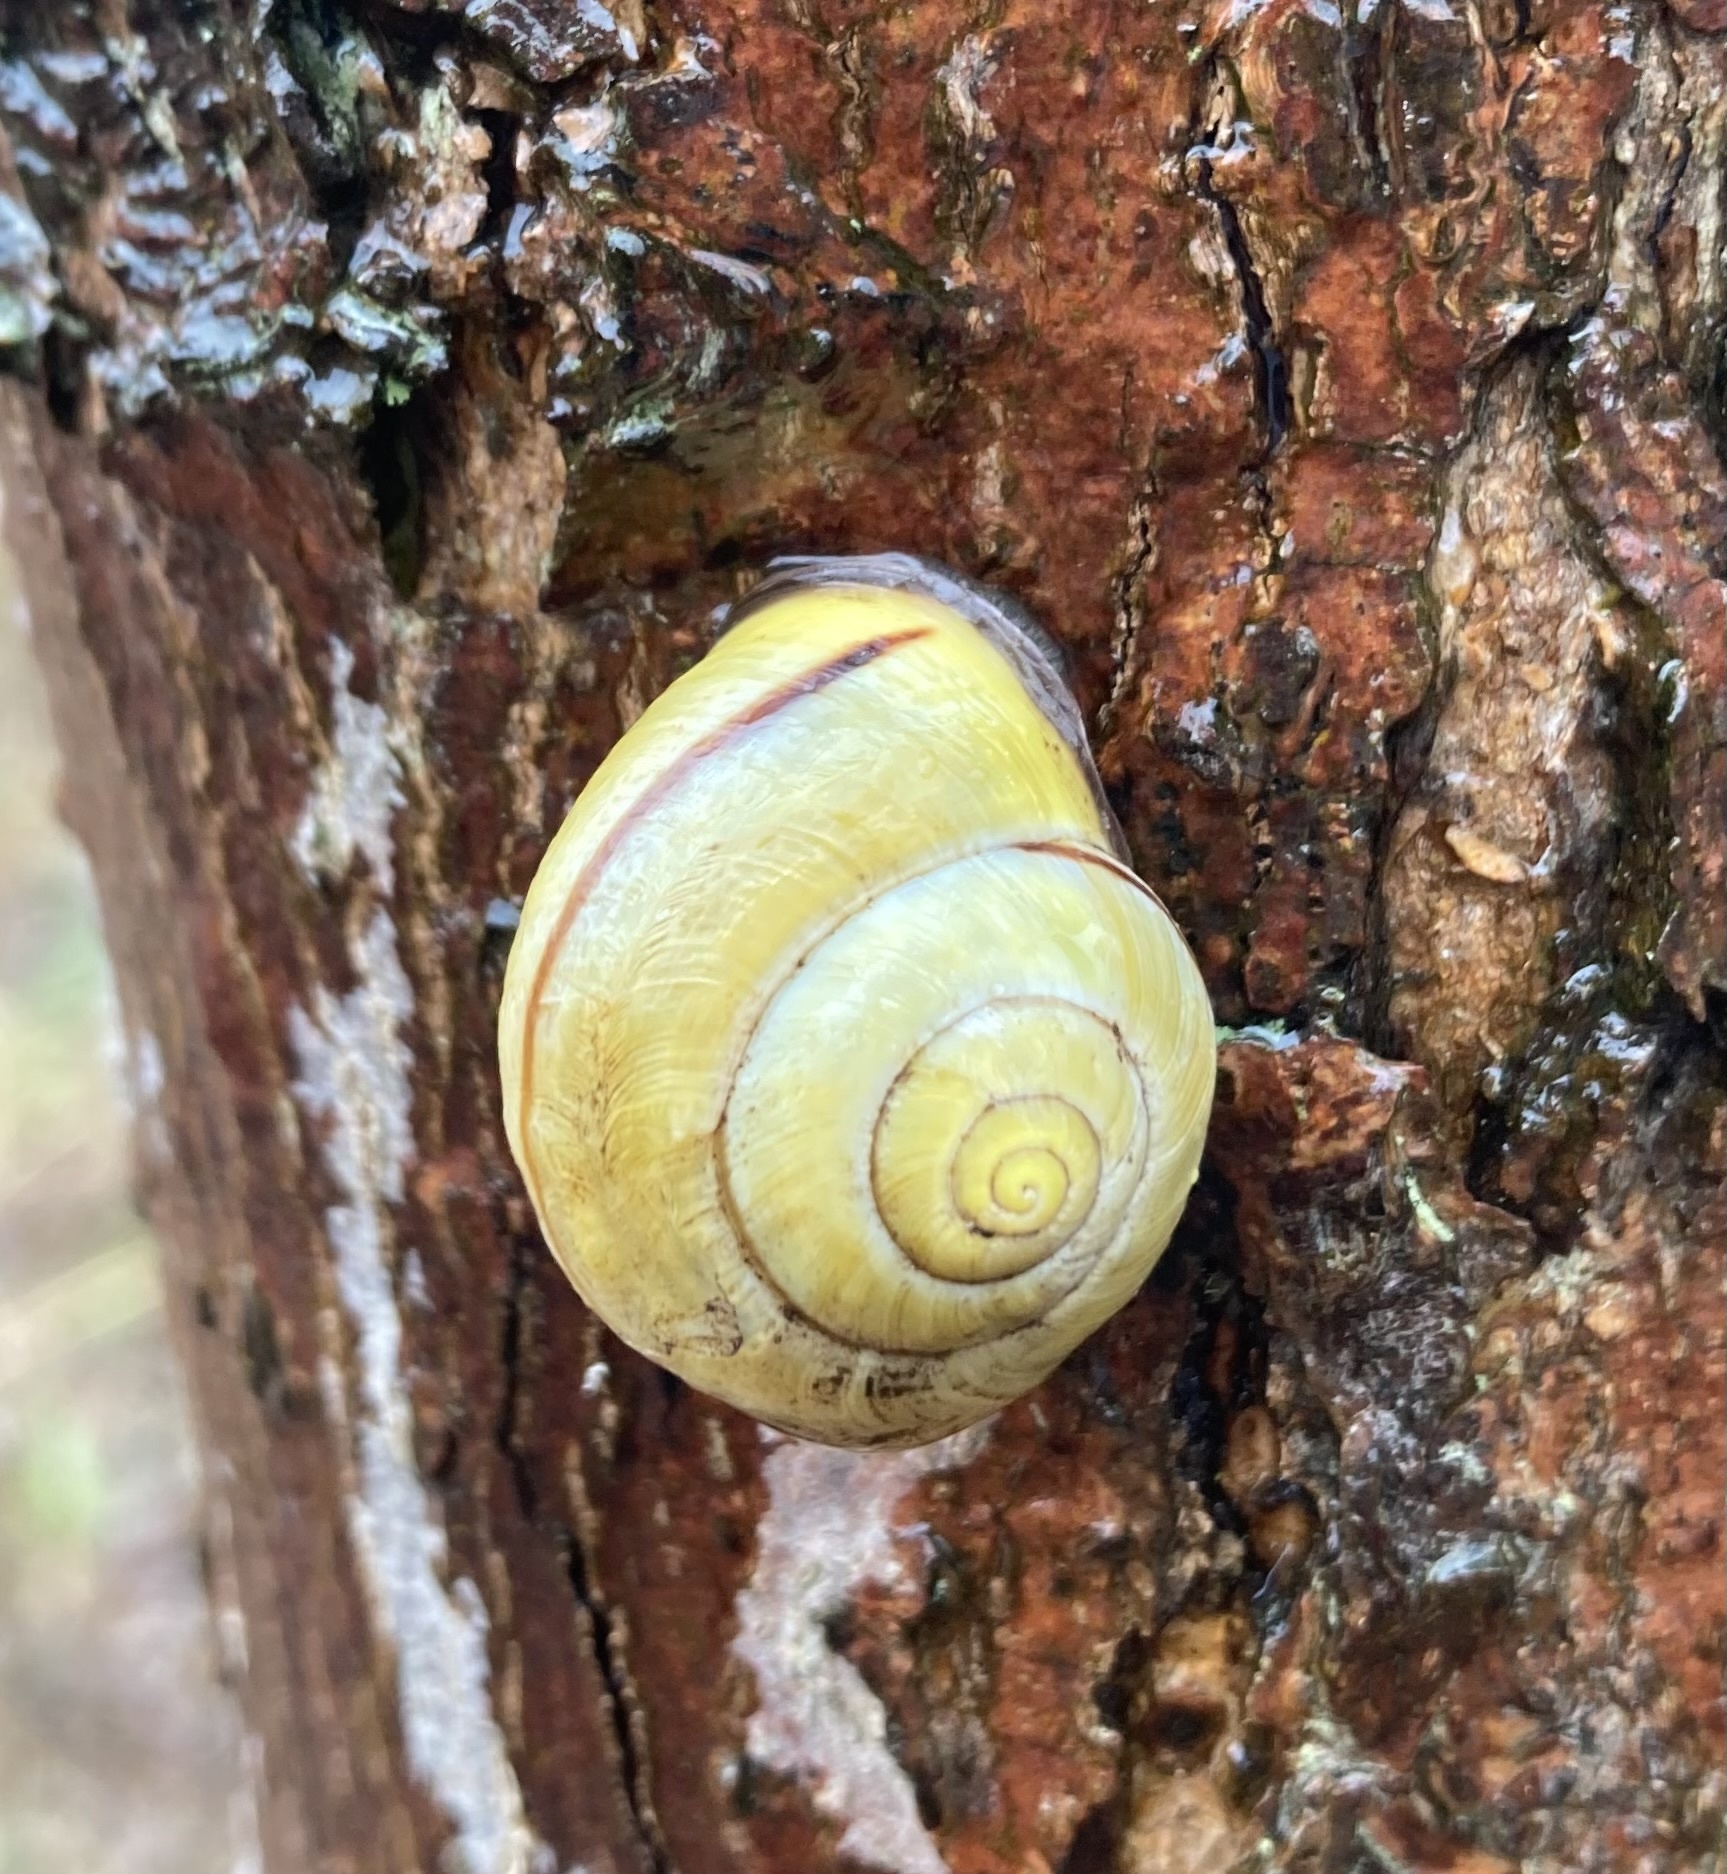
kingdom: Animalia
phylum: Mollusca
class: Gastropoda
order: Stylommatophora
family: Helicidae
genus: Cepaea
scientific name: Cepaea nemoralis
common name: Grovesnail
